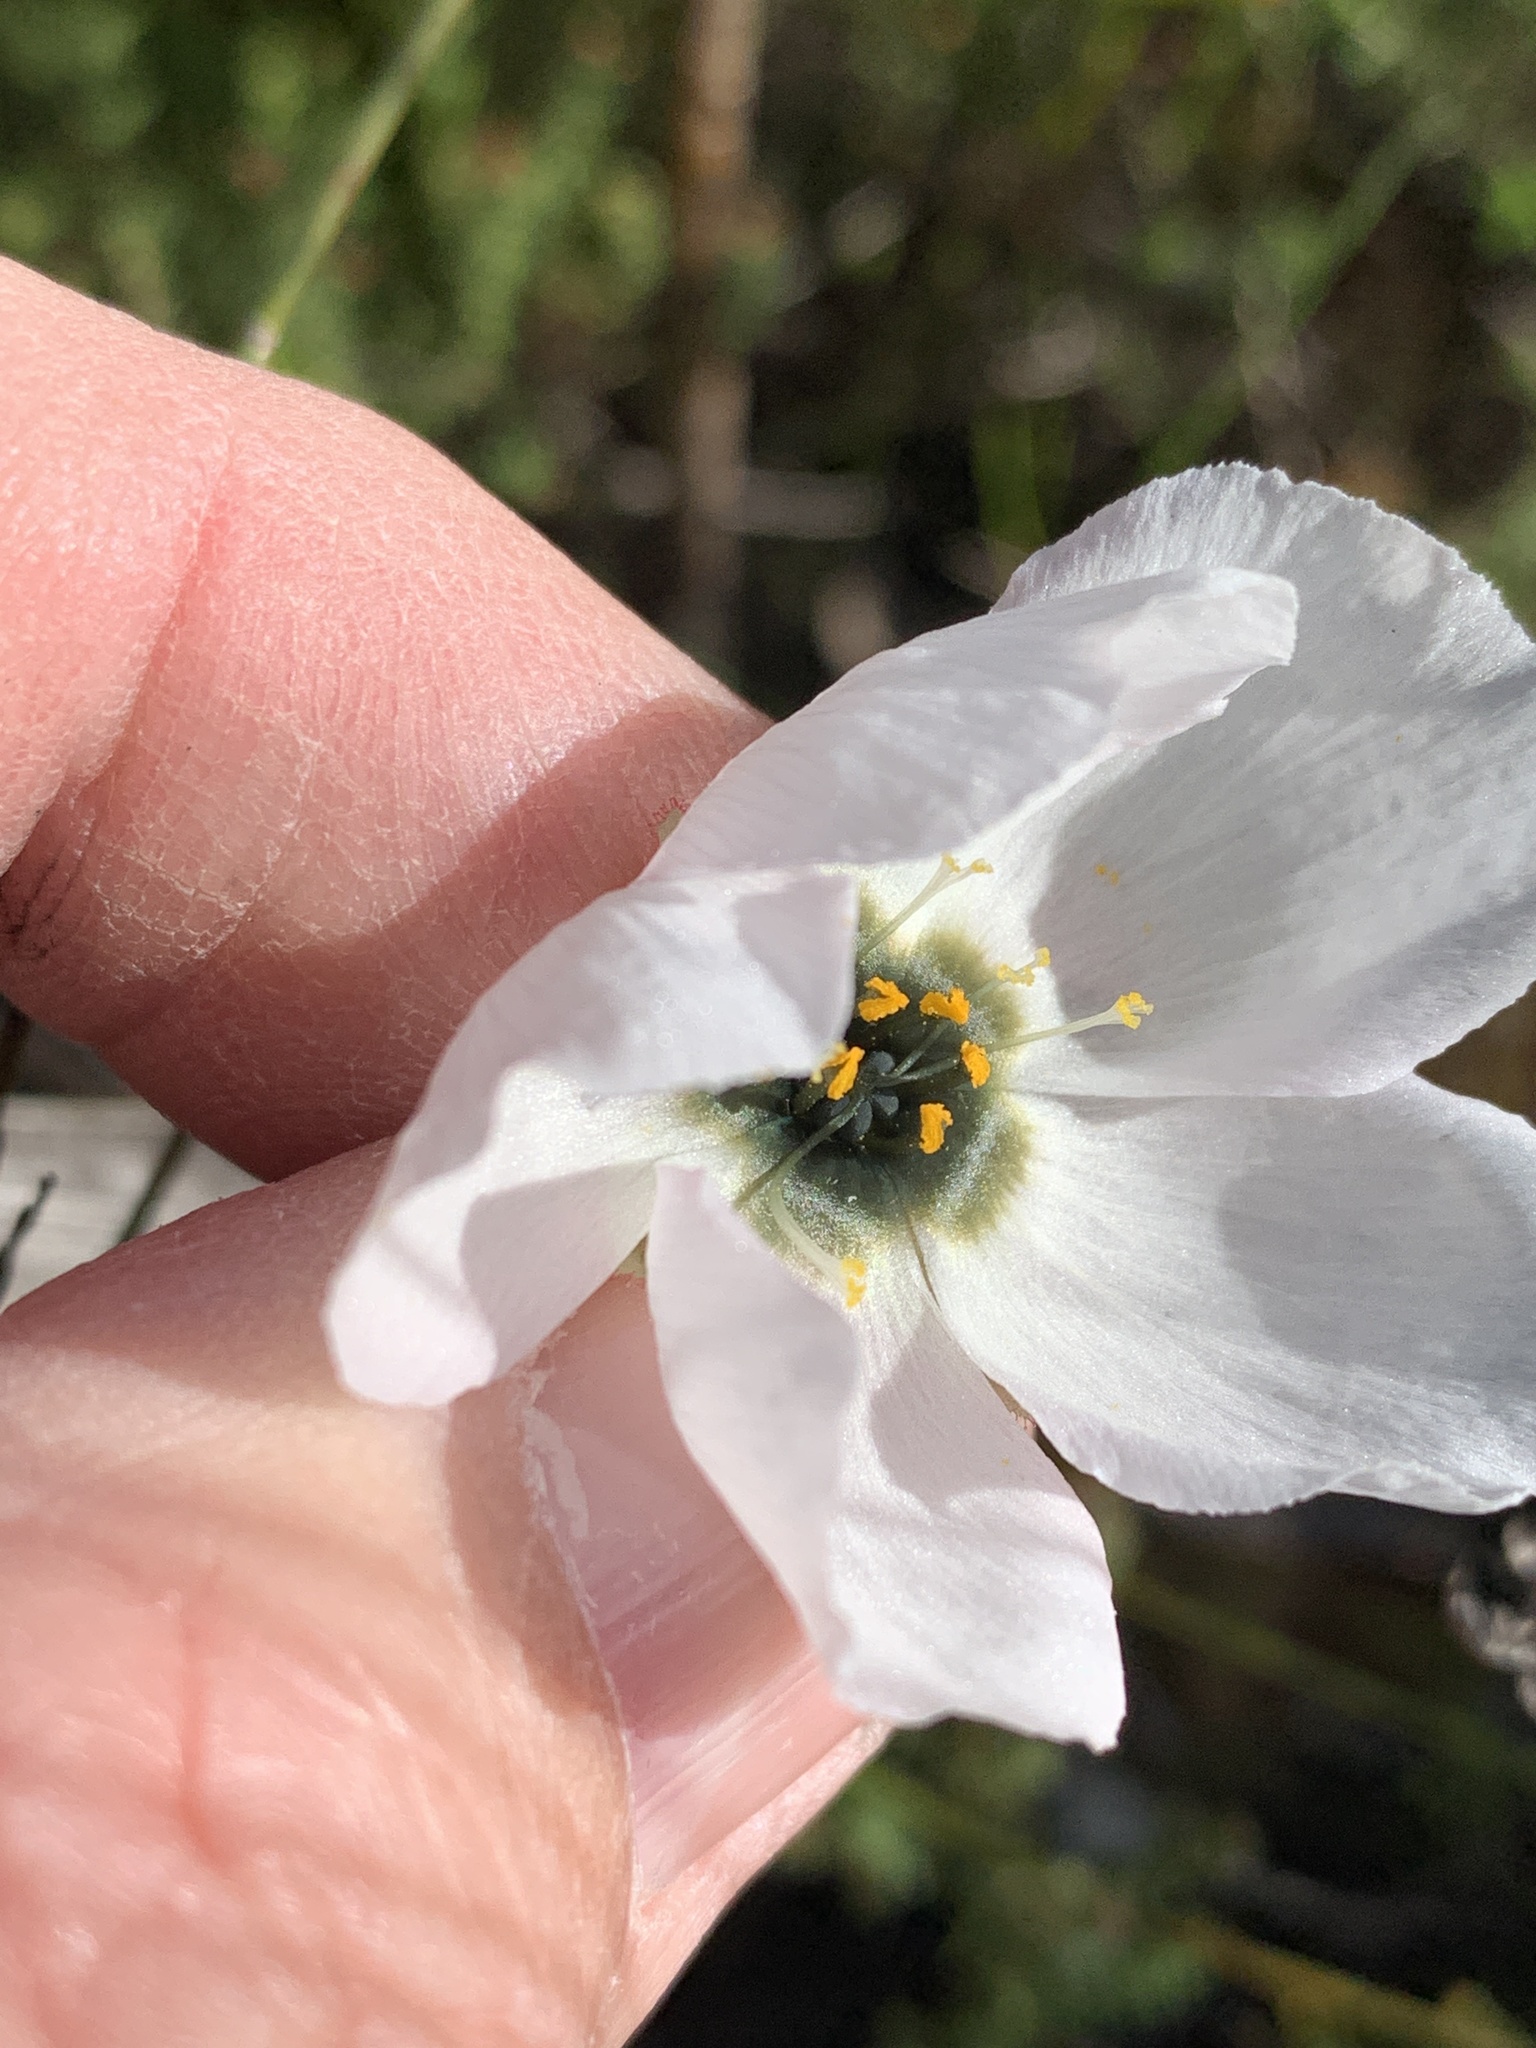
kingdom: Plantae
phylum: Tracheophyta
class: Magnoliopsida
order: Caryophyllales
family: Droseraceae
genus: Drosera
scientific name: Drosera cistiflora
